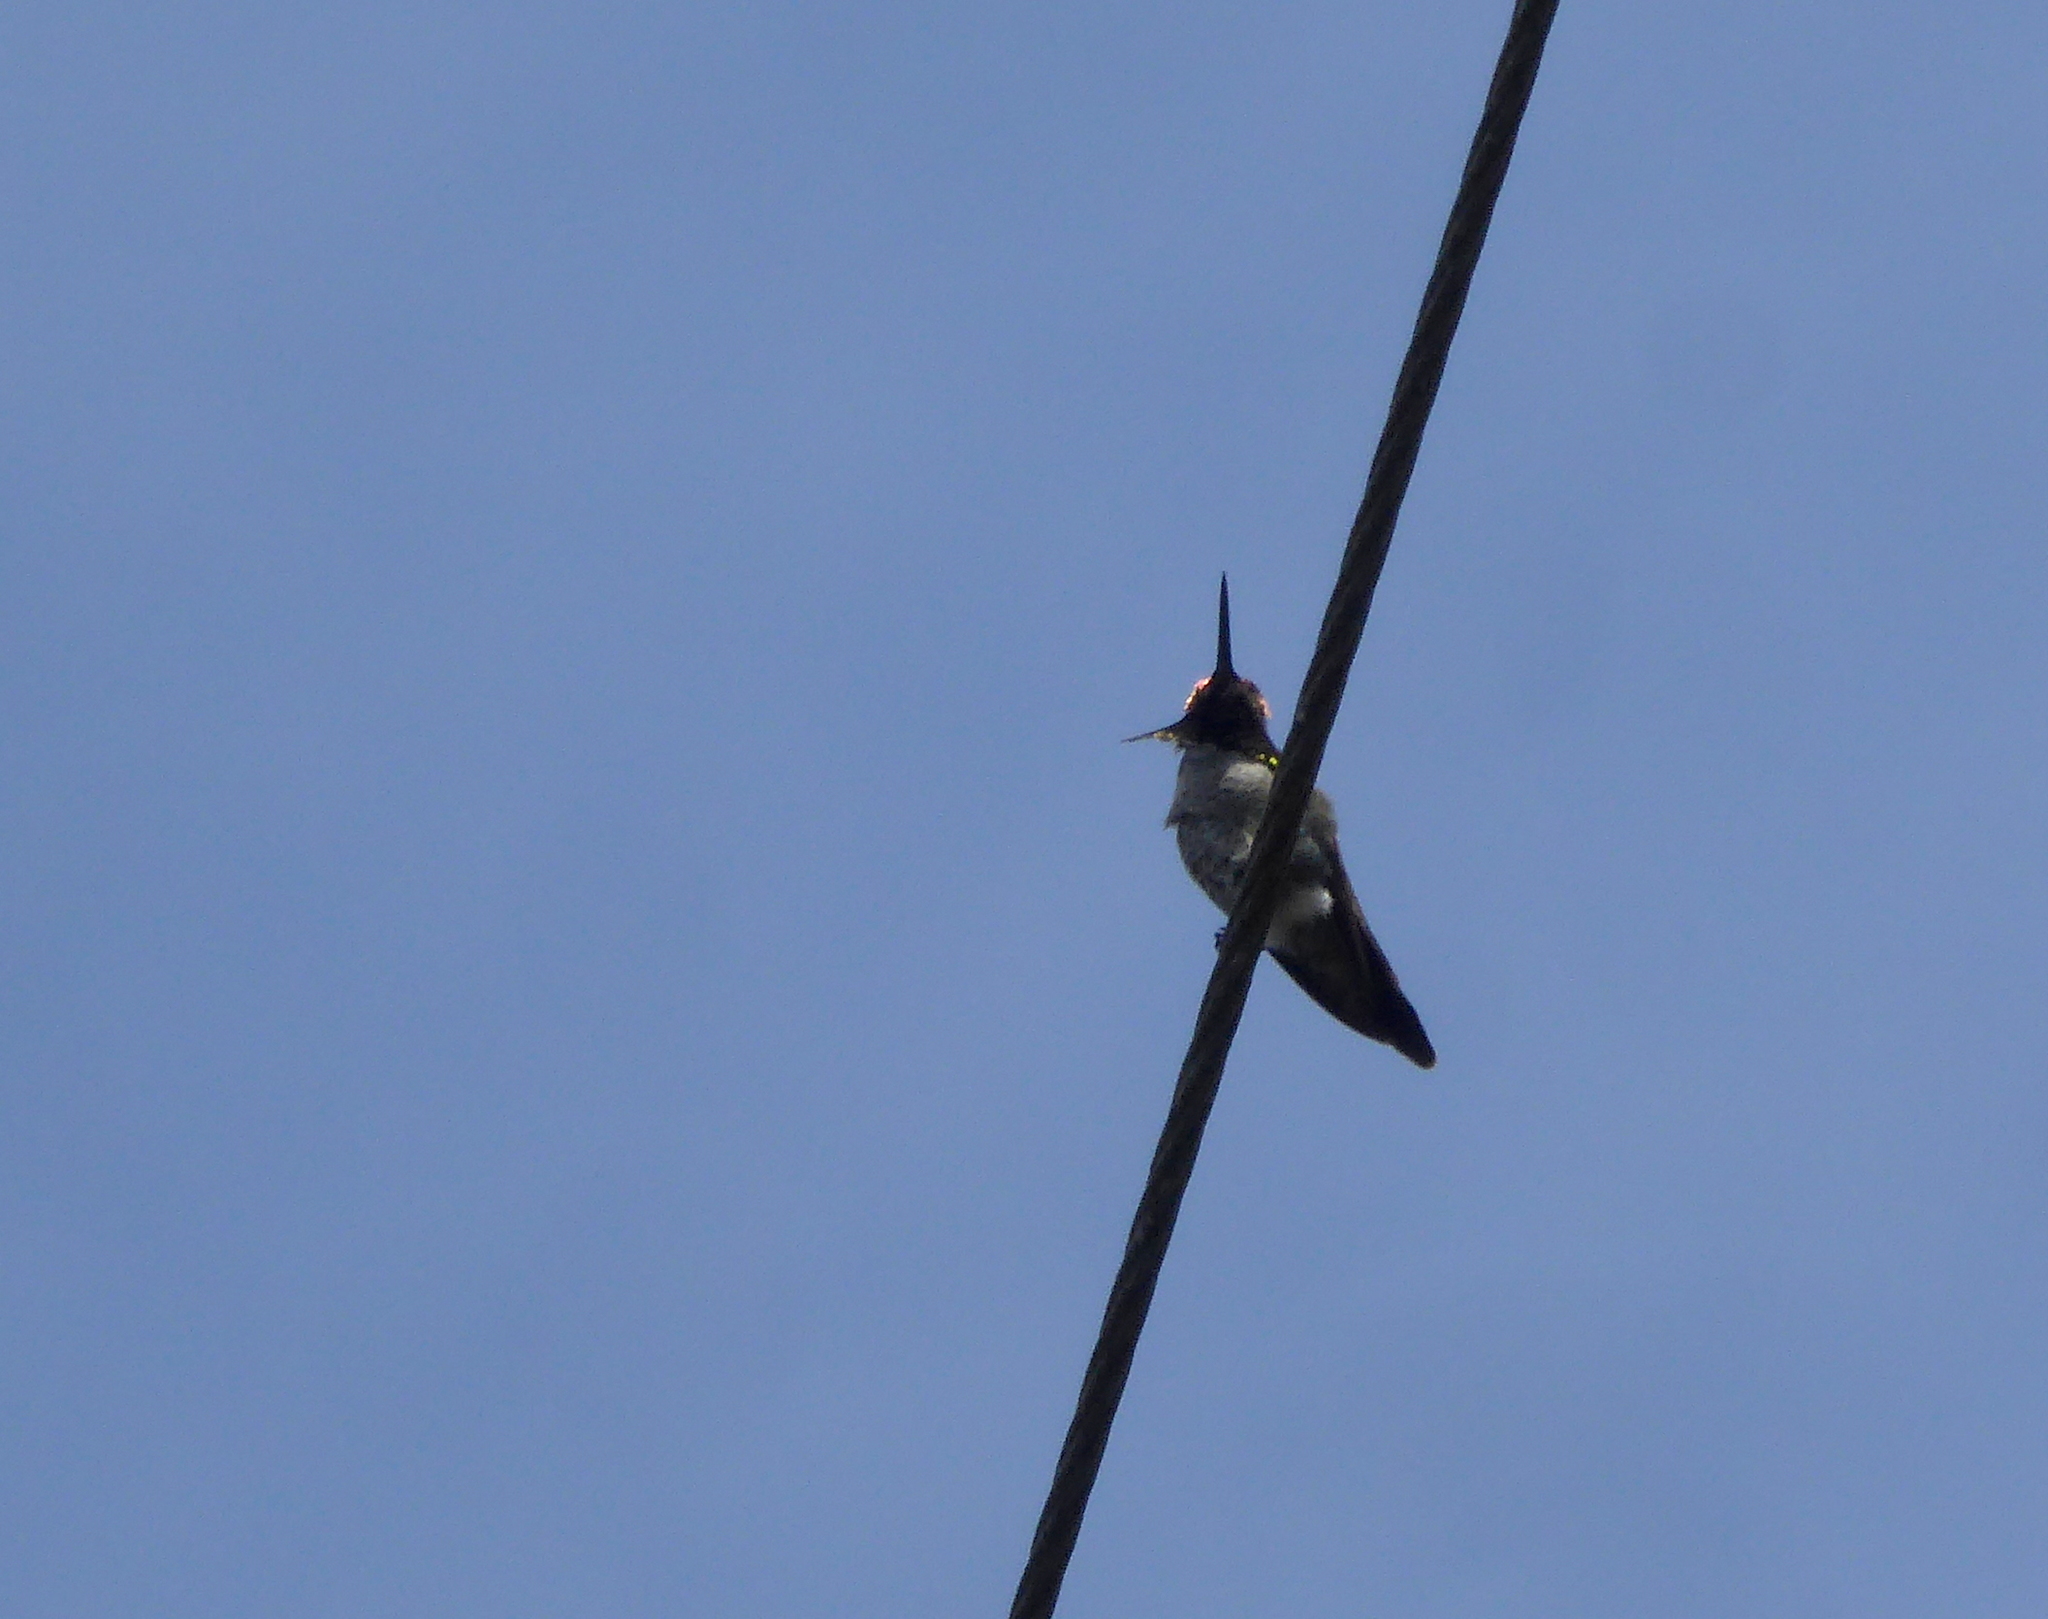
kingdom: Animalia
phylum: Chordata
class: Aves
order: Apodiformes
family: Trochilidae
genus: Calypte
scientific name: Calypte anna
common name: Anna's hummingbird
